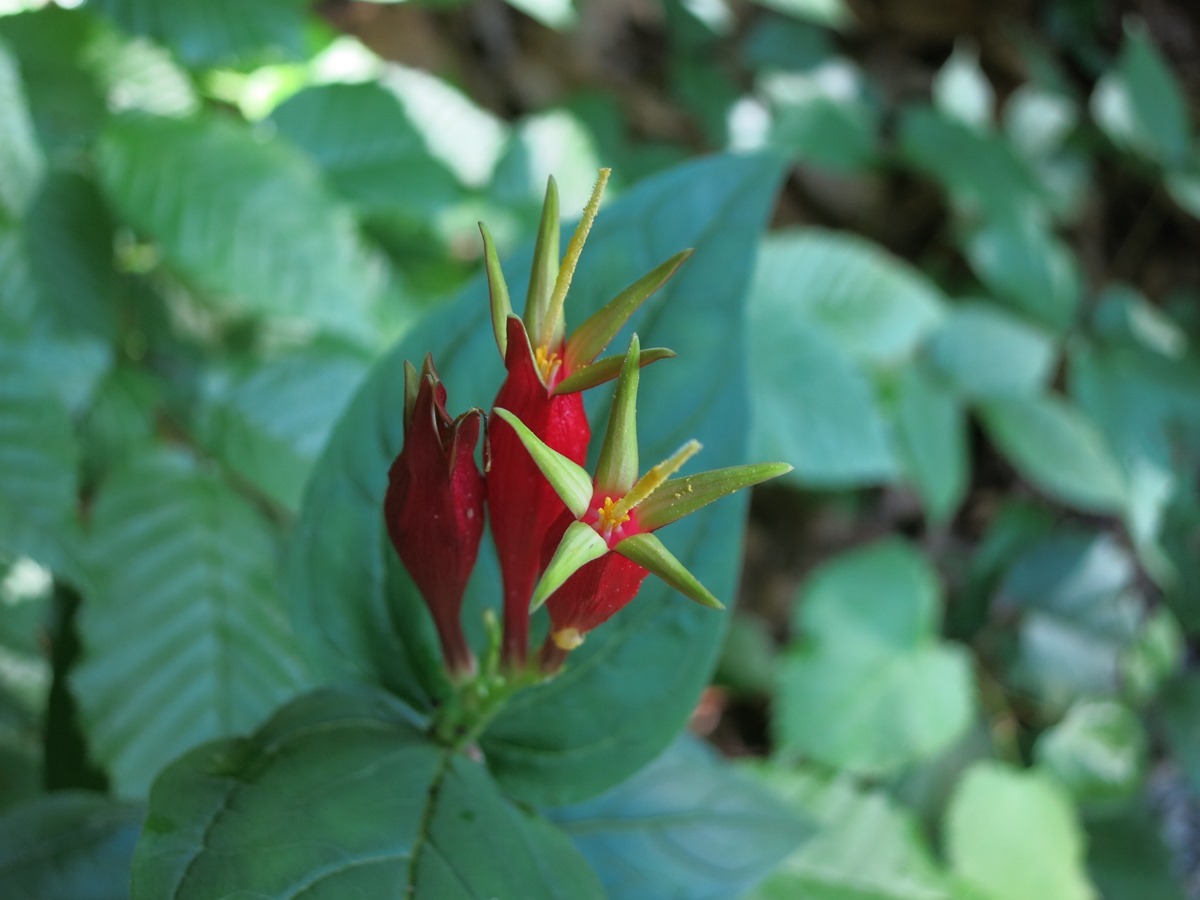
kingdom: Plantae
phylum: Tracheophyta
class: Magnoliopsida
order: Gentianales
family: Loganiaceae
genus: Spigelia
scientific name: Spigelia marilandica
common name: Indian-pink
